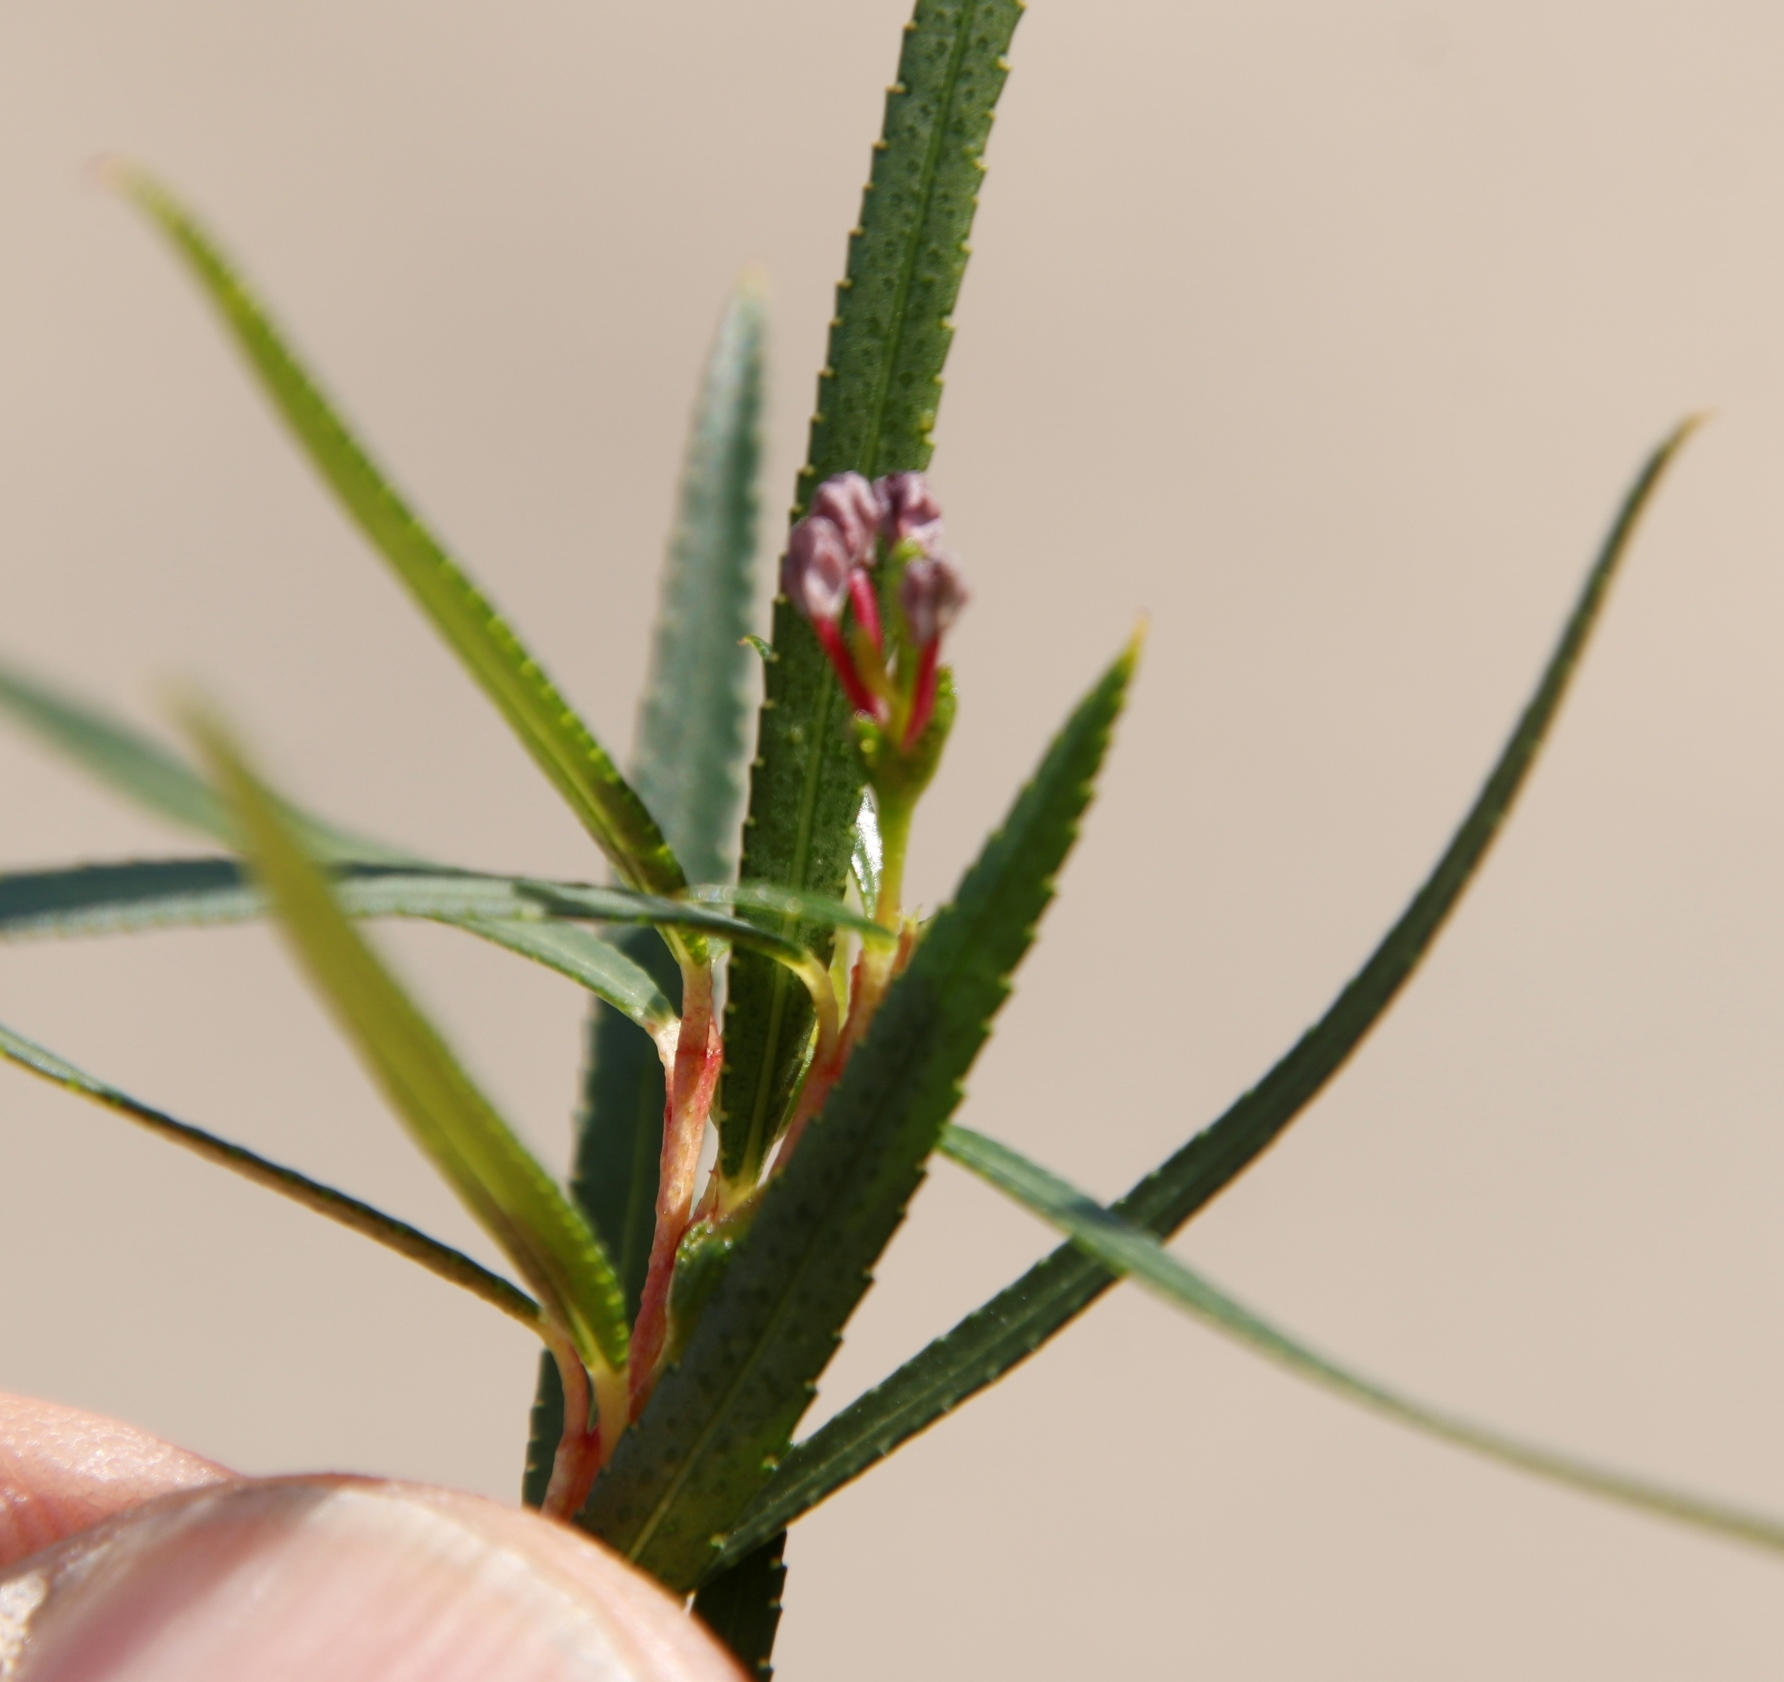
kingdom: Plantae
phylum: Tracheophyta
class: Magnoliopsida
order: Sapindales
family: Rutaceae
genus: Empleurum
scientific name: Empleurum unicapsulare
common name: False buchu
